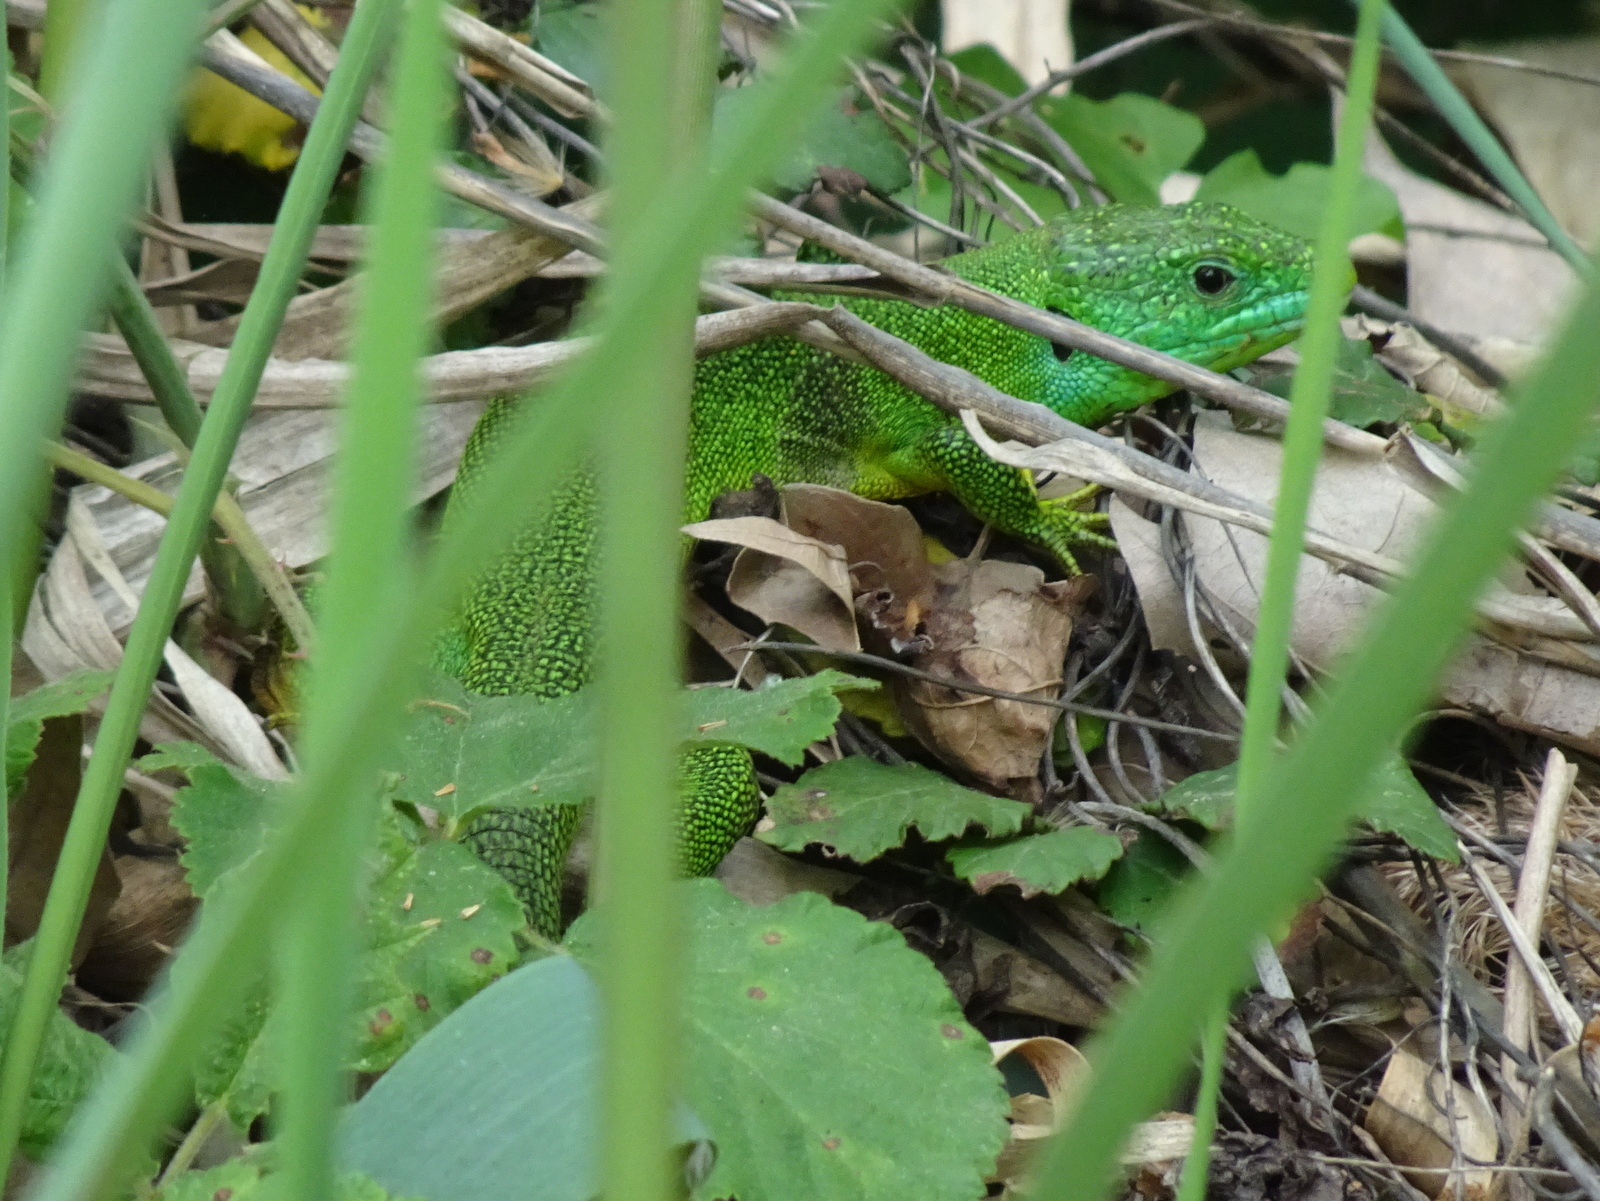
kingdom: Animalia
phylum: Chordata
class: Squamata
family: Lacertidae
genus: Lacerta
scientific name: Lacerta bilineata
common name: Western green lizard
